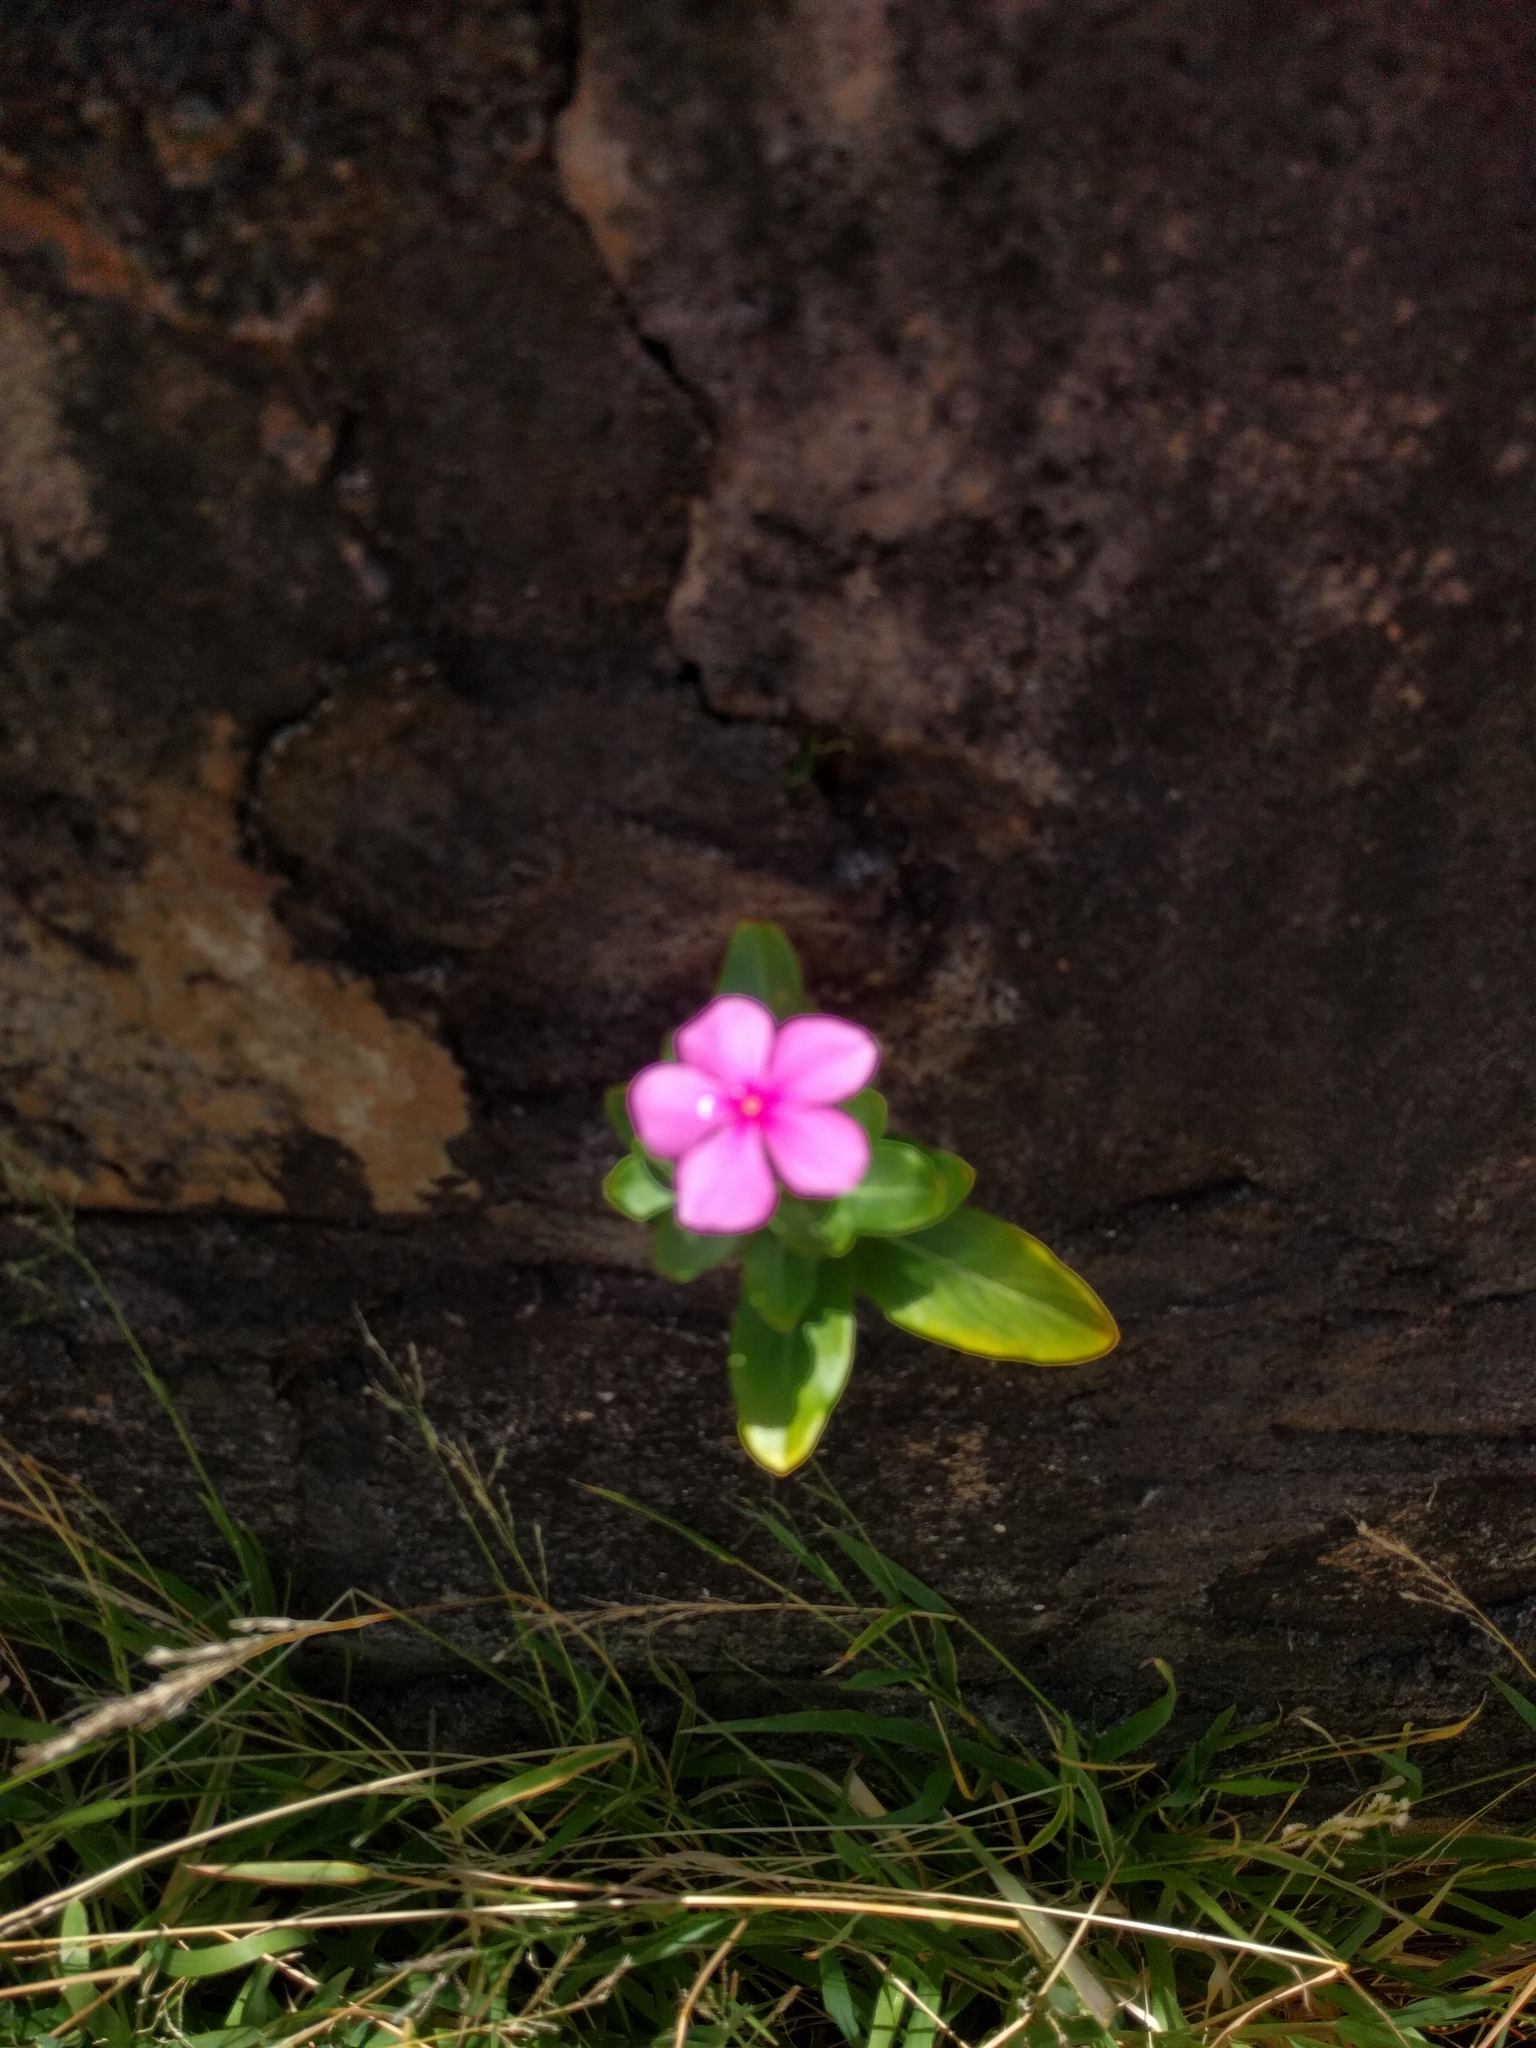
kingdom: Plantae
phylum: Tracheophyta
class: Magnoliopsida
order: Gentianales
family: Apocynaceae
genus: Catharanthus
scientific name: Catharanthus roseus
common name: Madagascar periwinkle
